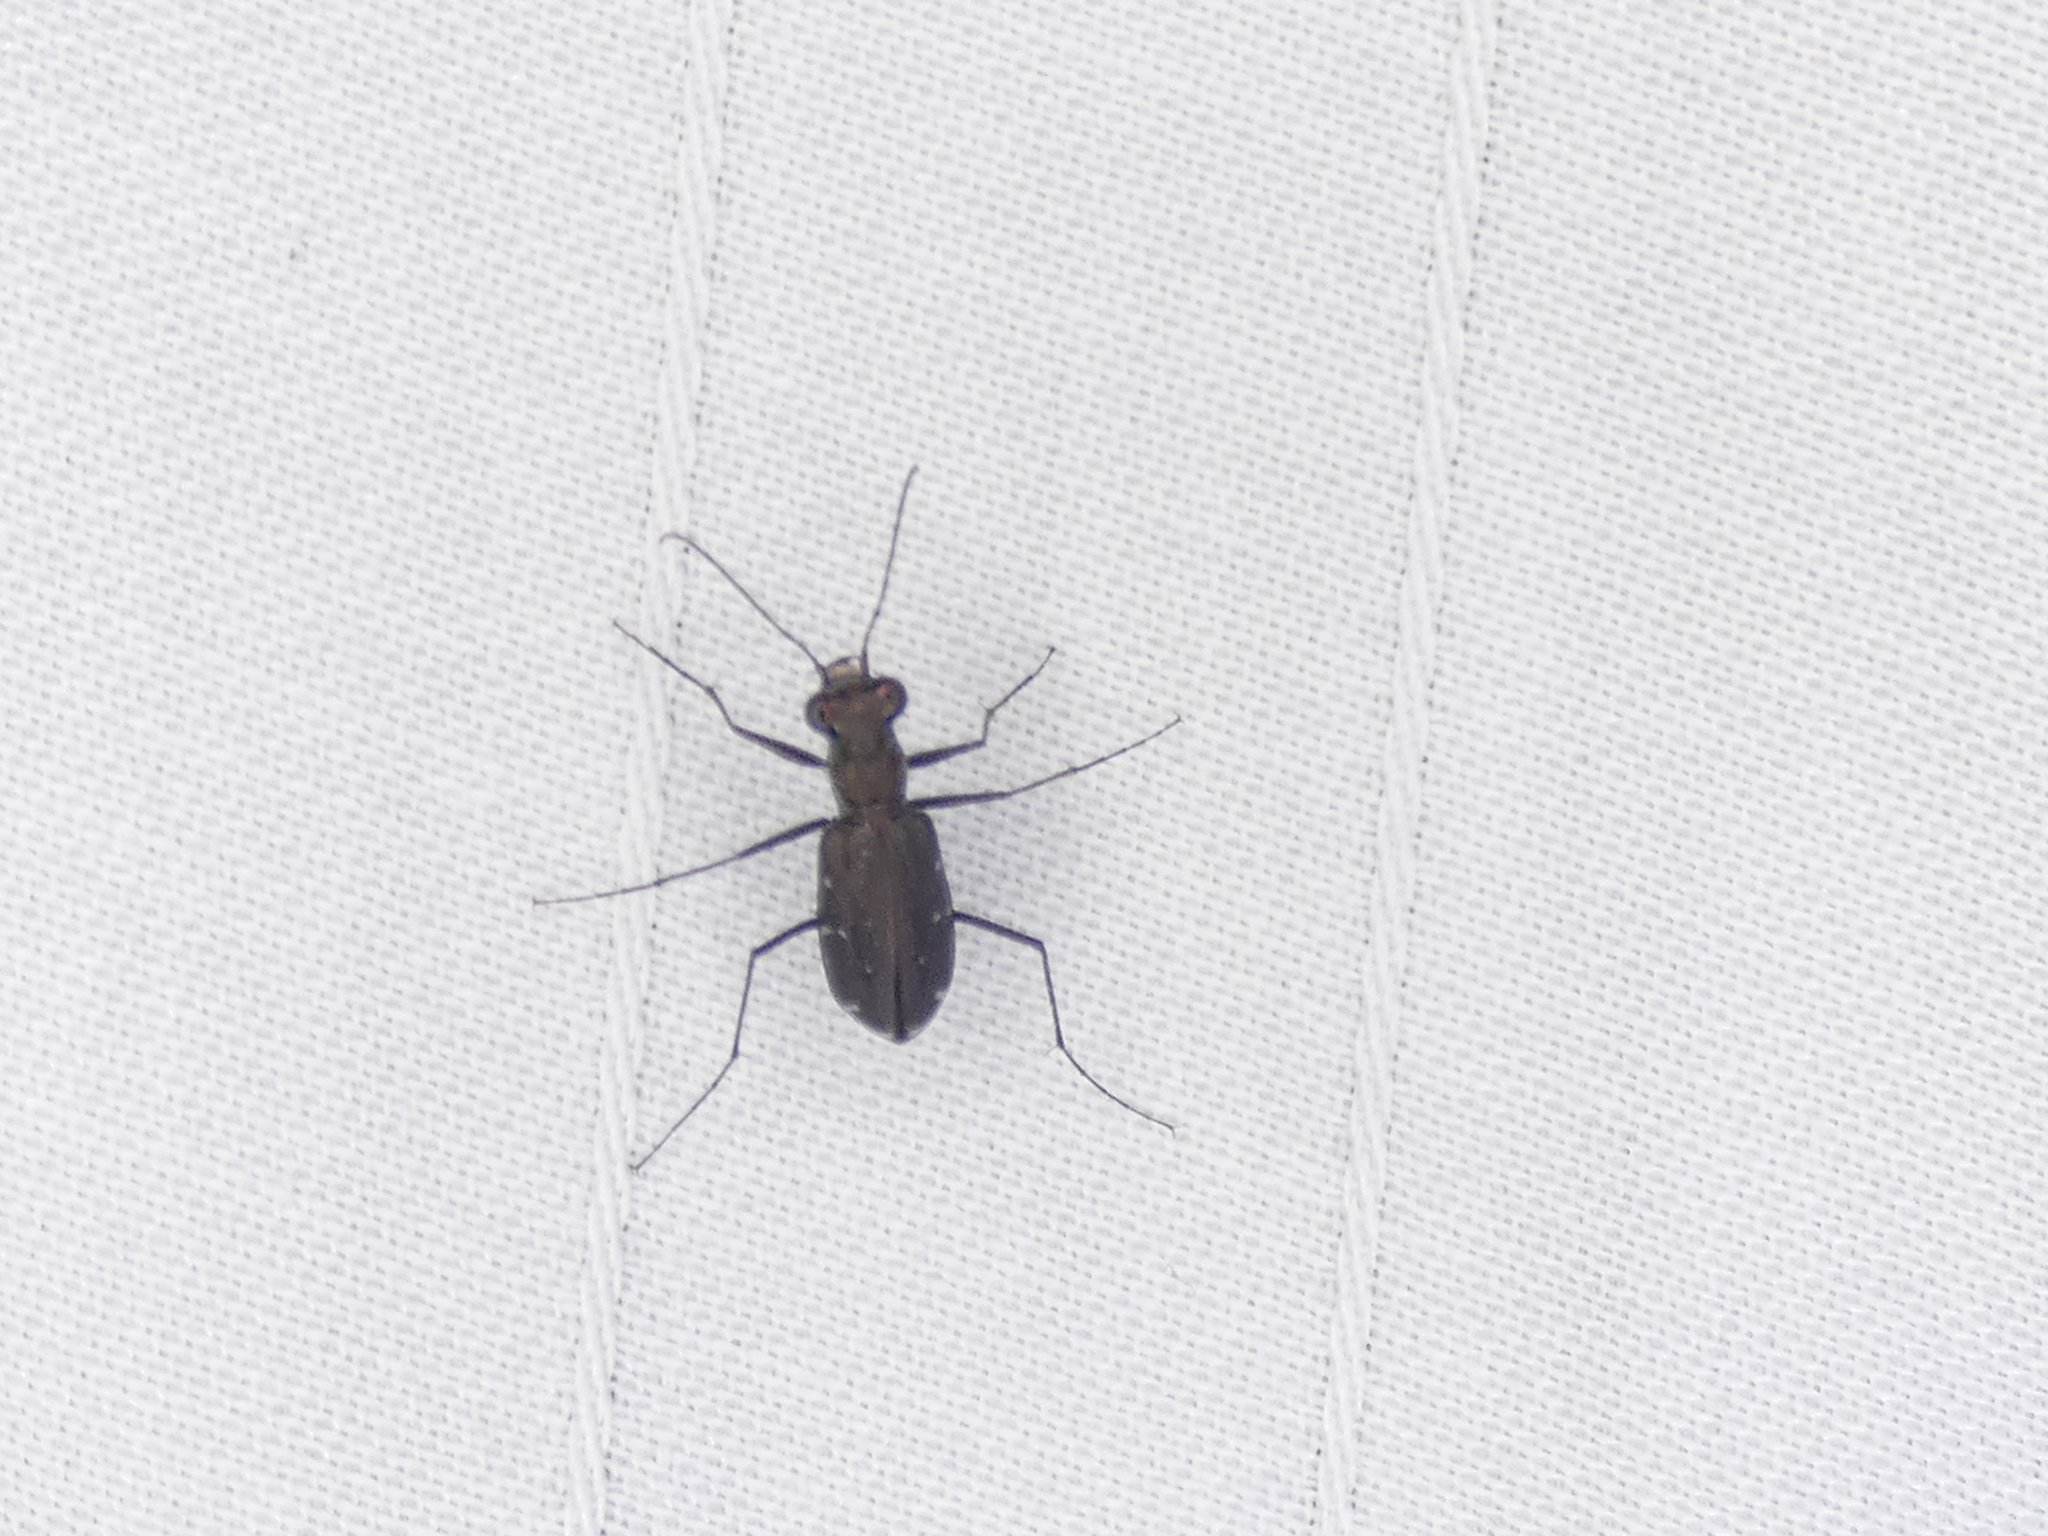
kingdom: Animalia
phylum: Arthropoda
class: Insecta
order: Coleoptera
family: Carabidae
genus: Cicindela
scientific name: Cicindela punctulata
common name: Punctured tiger beetle
